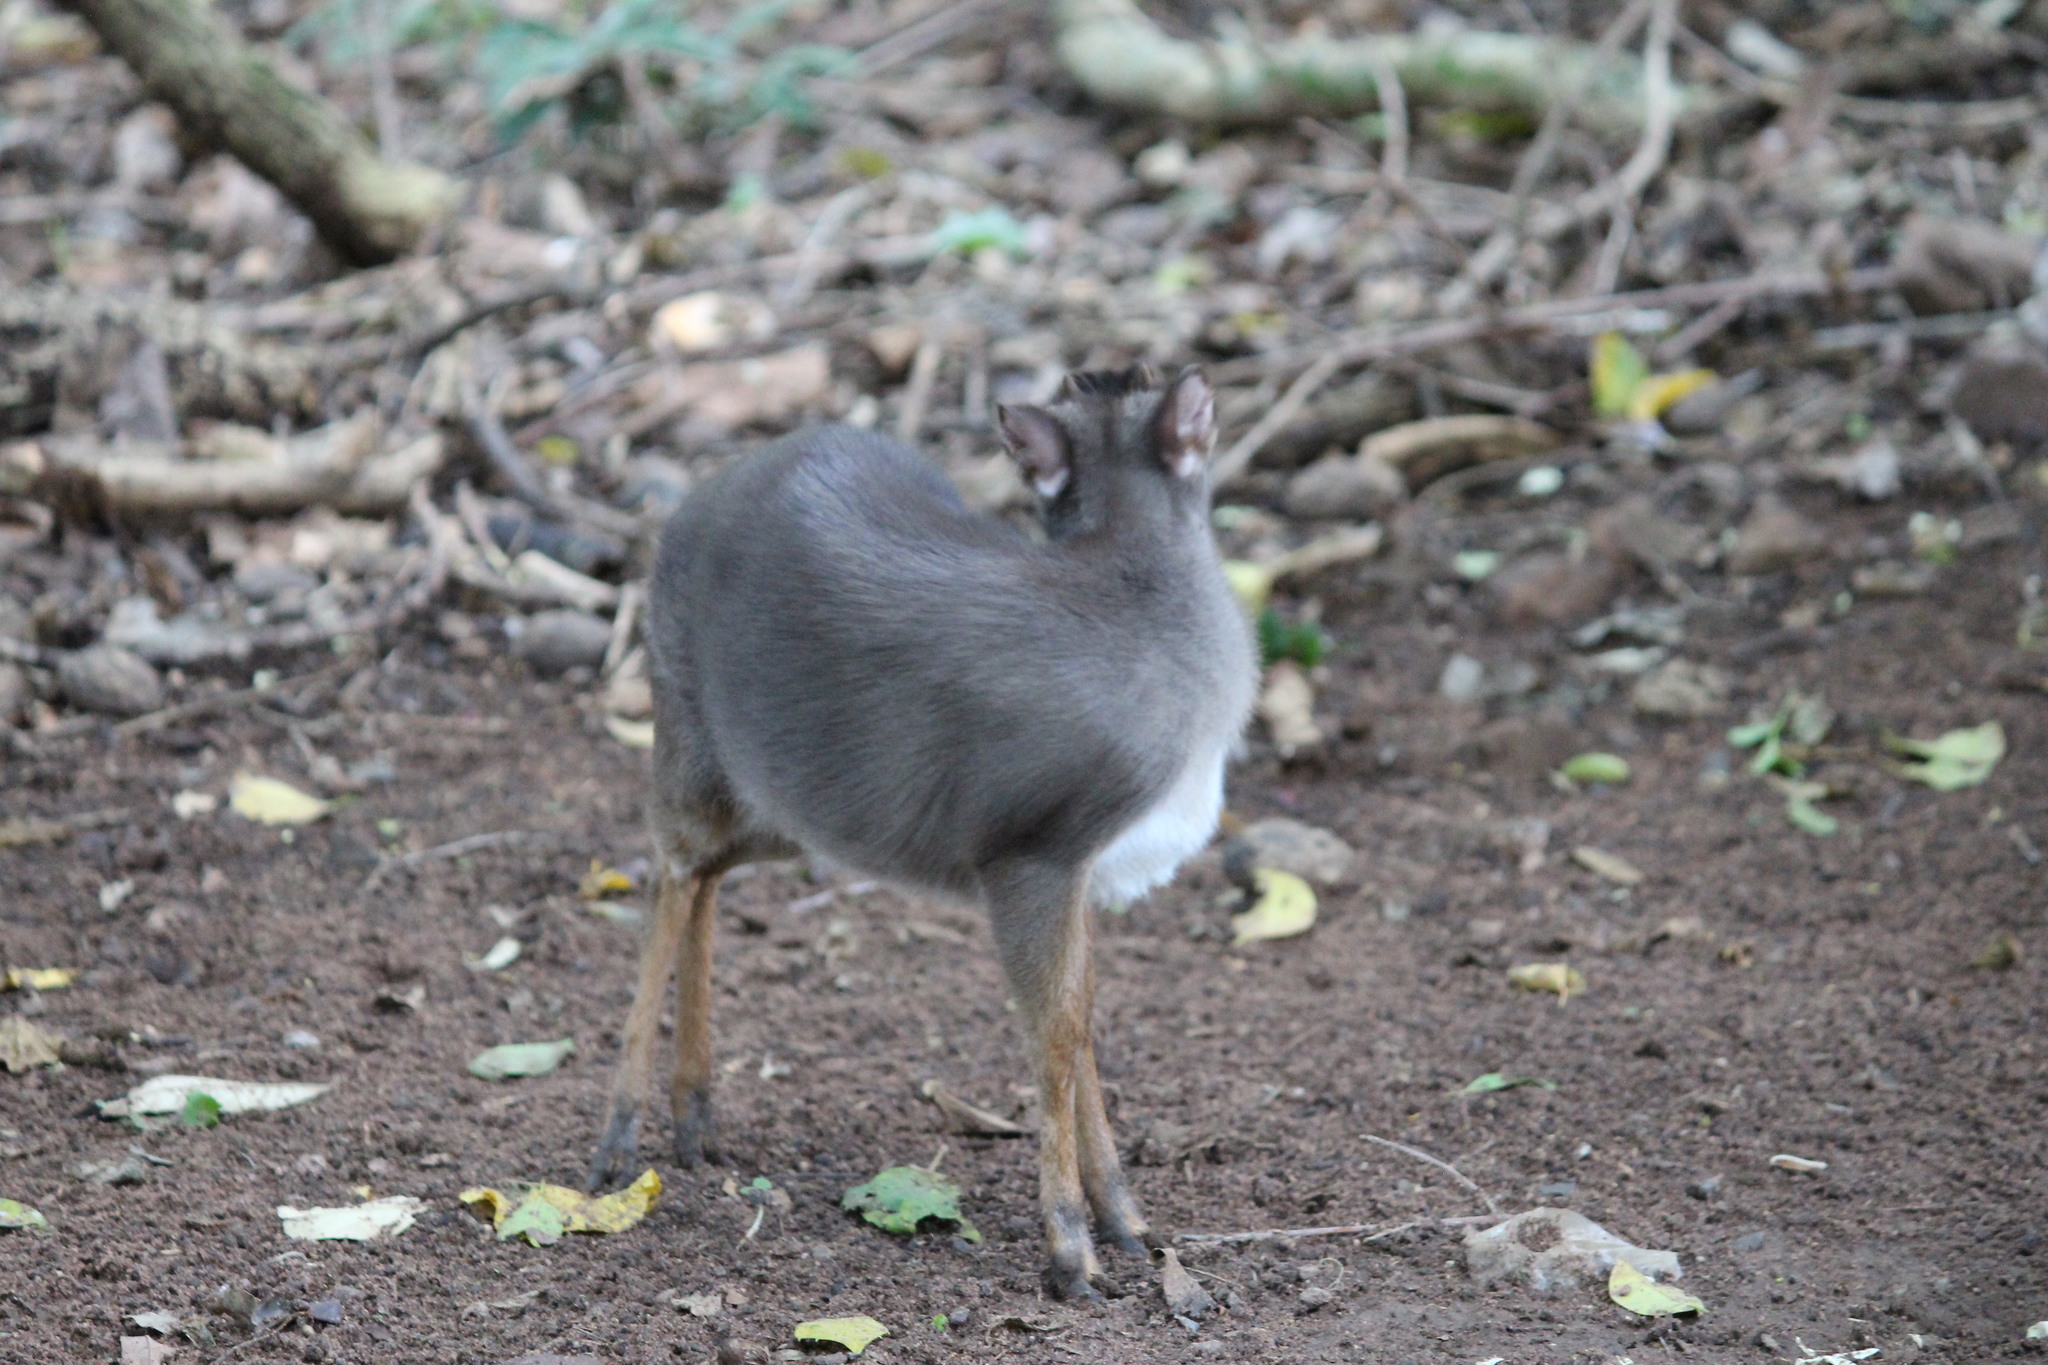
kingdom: Animalia
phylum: Chordata
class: Mammalia
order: Artiodactyla
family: Bovidae
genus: Philantomba
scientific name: Philantomba monticola
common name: Blue duiker
